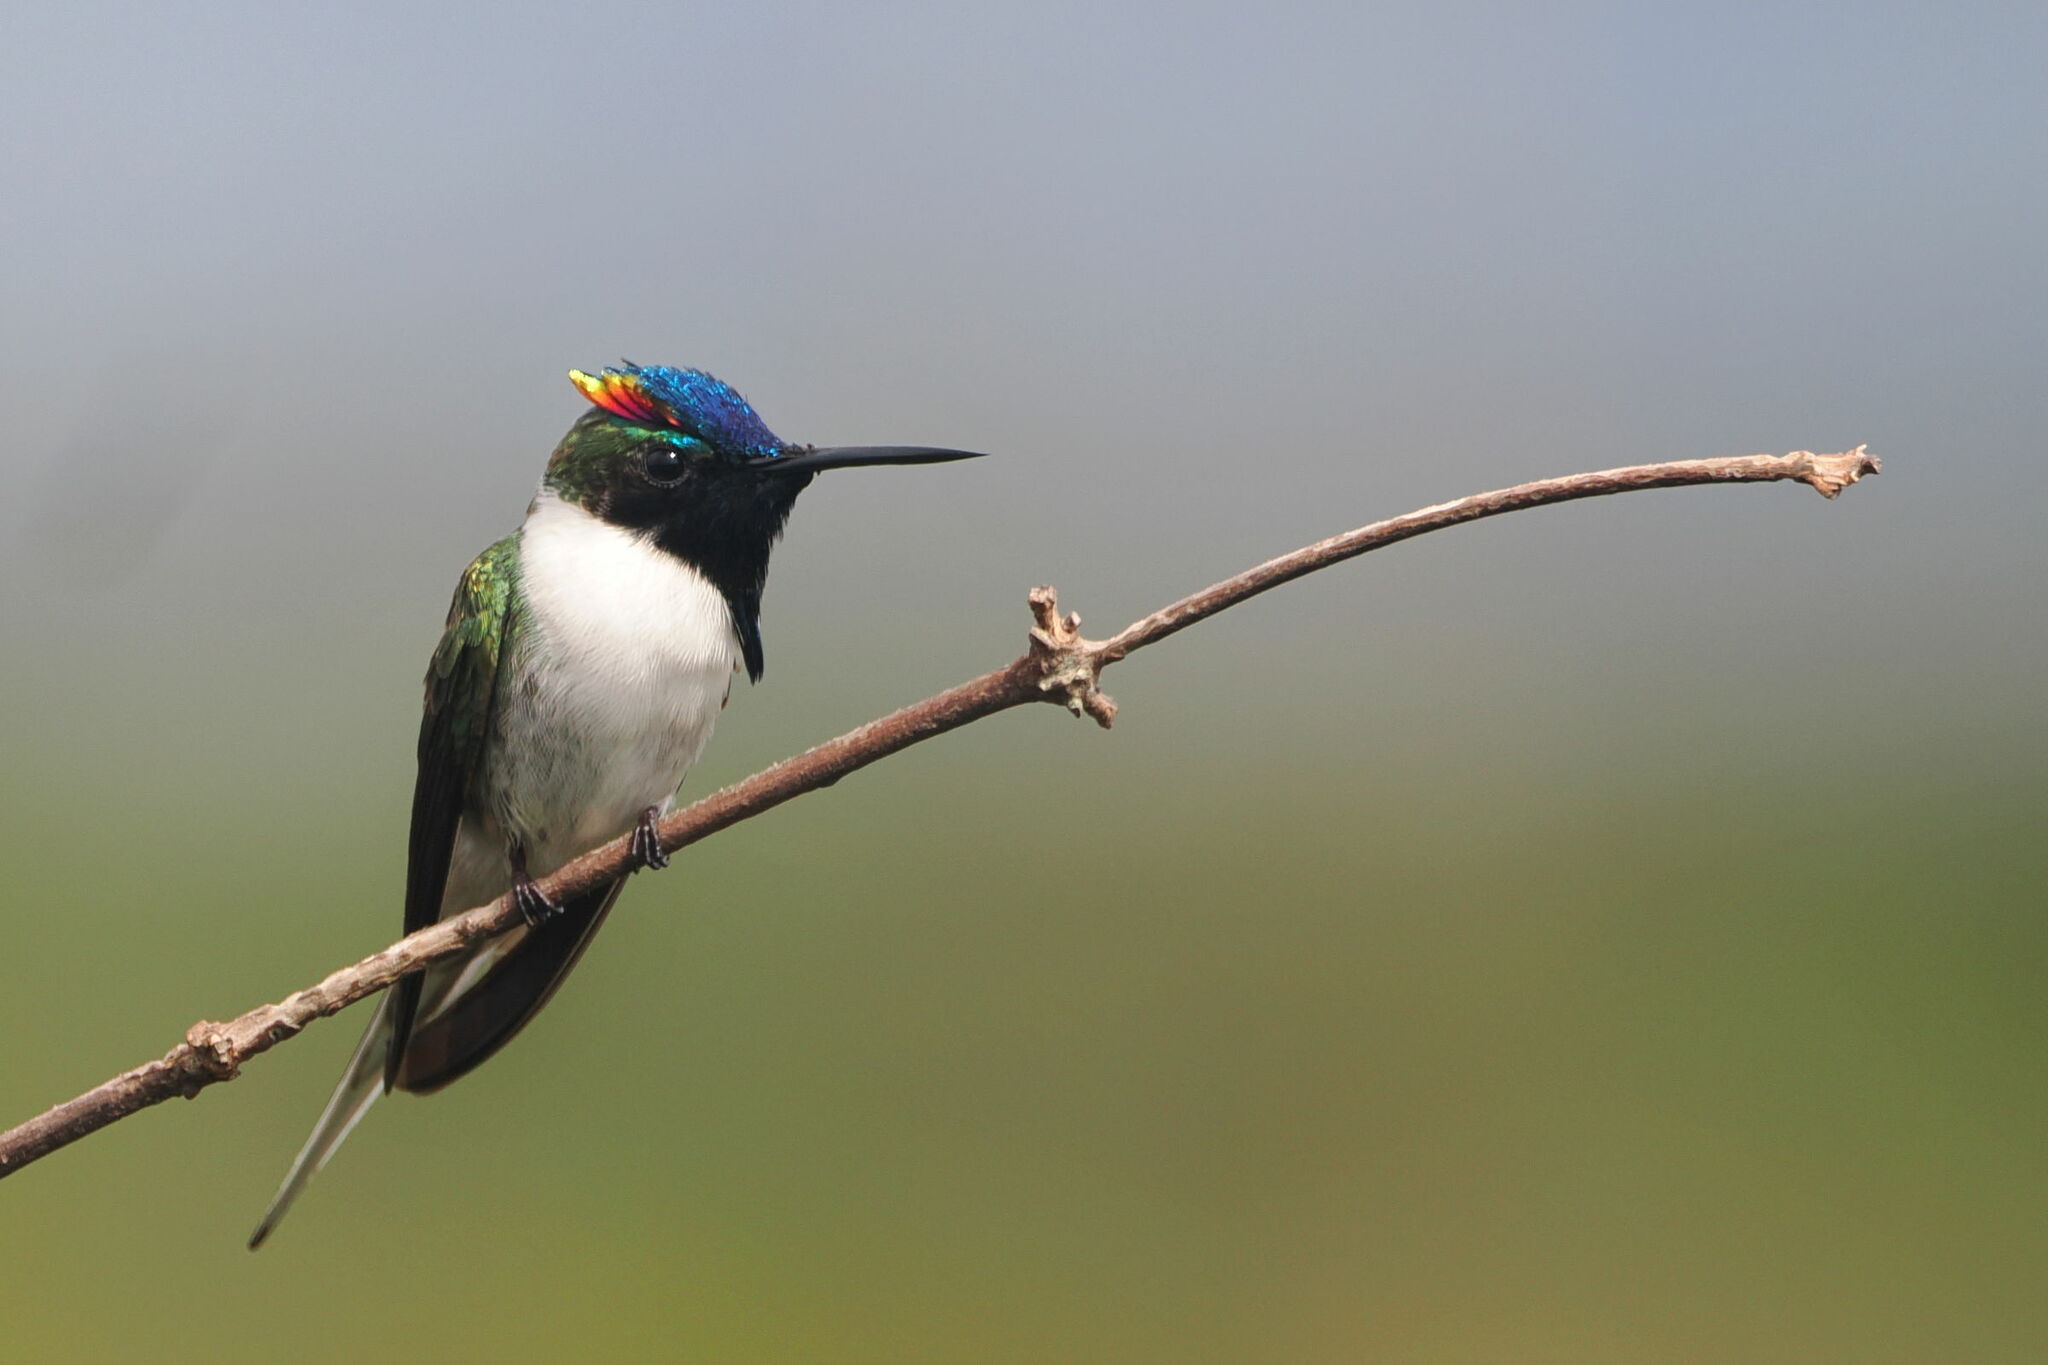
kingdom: Animalia
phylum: Chordata
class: Aves
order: Apodiformes
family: Trochilidae
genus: Heliactin
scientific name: Heliactin bilophus
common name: Horned sungem
